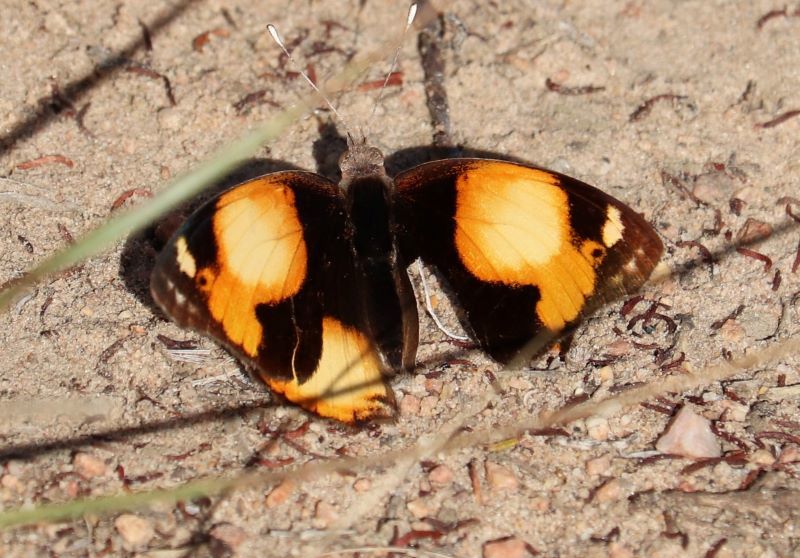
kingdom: Animalia
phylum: Arthropoda
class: Insecta
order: Lepidoptera
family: Nymphalidae
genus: Junonia
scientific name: Junonia hierta
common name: Yellow pansy
